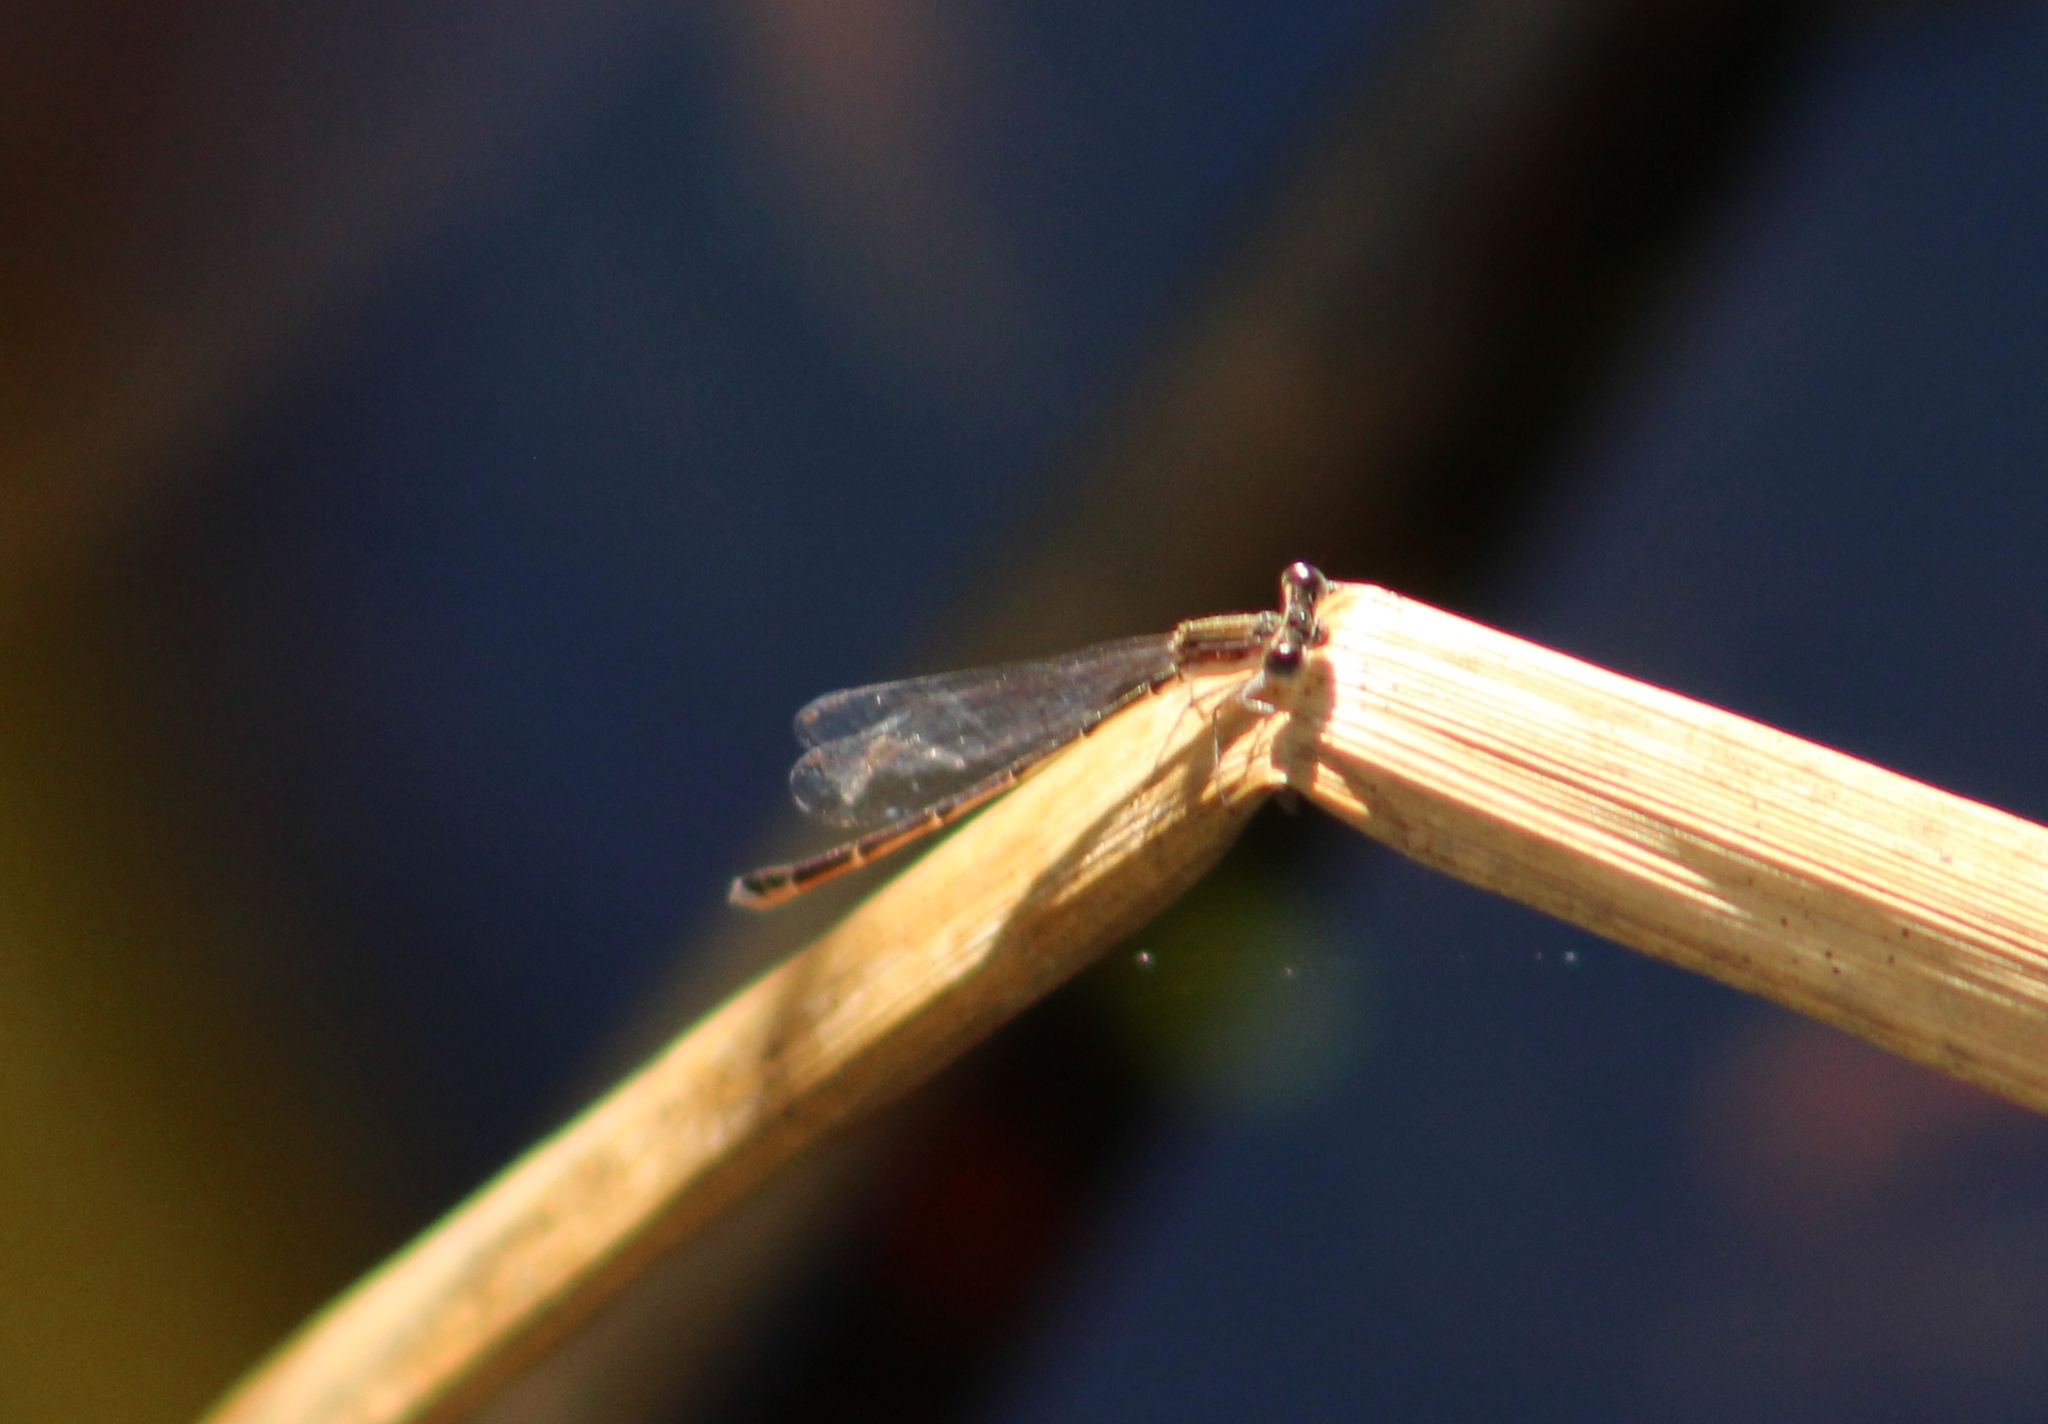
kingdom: Animalia
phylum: Arthropoda
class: Insecta
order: Odonata
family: Coenagrionidae
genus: Nehalennia
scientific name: Nehalennia pallidula
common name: Everglades sprite
